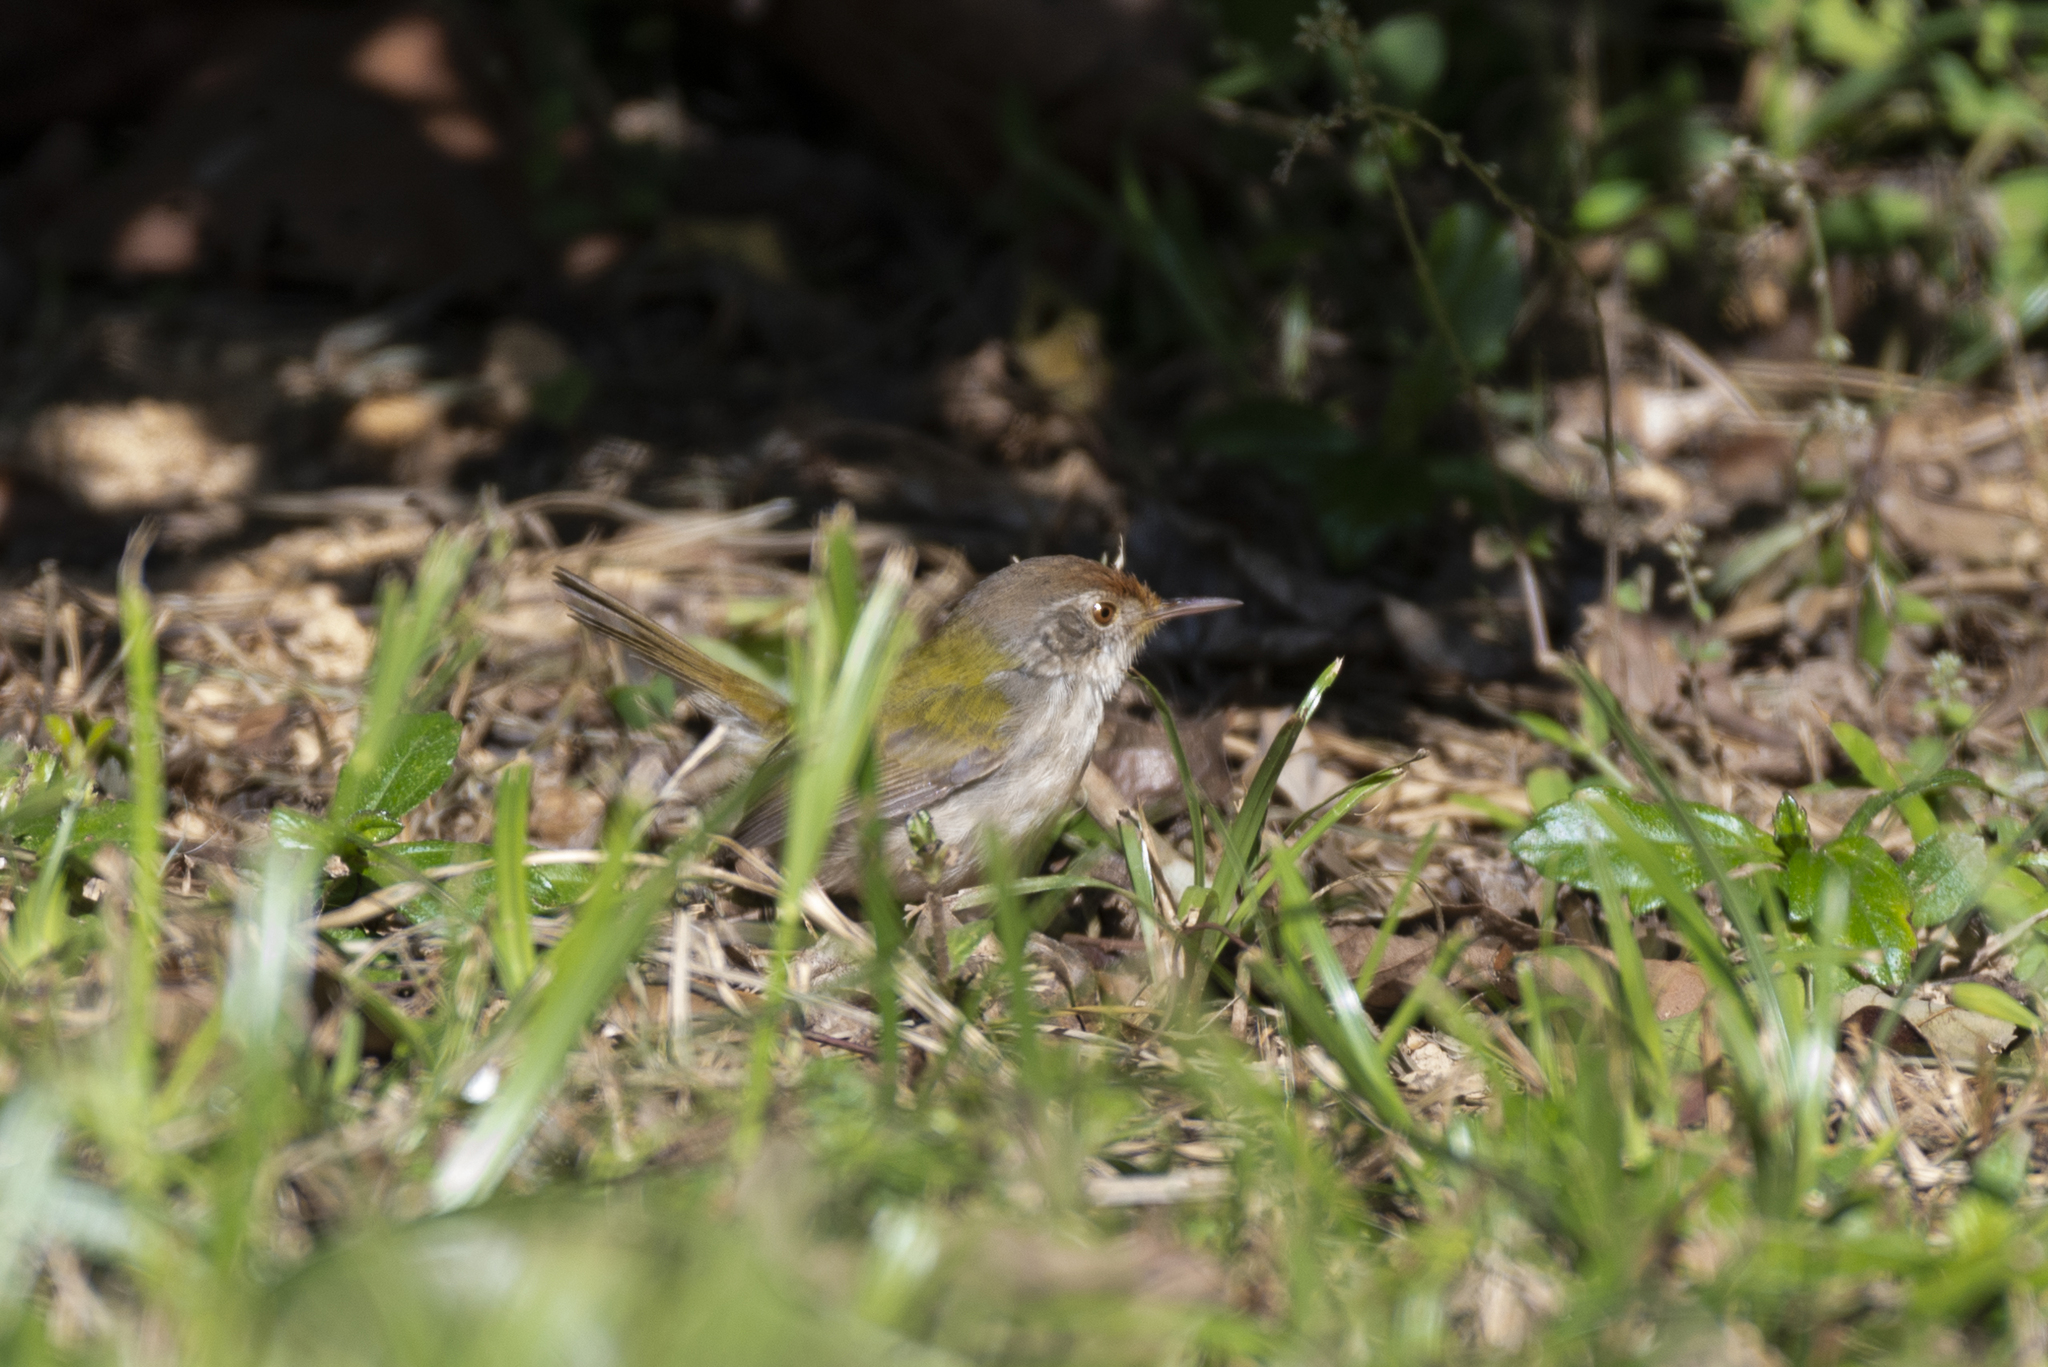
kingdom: Animalia
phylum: Chordata
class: Aves
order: Passeriformes
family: Cisticolidae
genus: Orthotomus
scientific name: Orthotomus sutorius
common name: Common tailorbird
